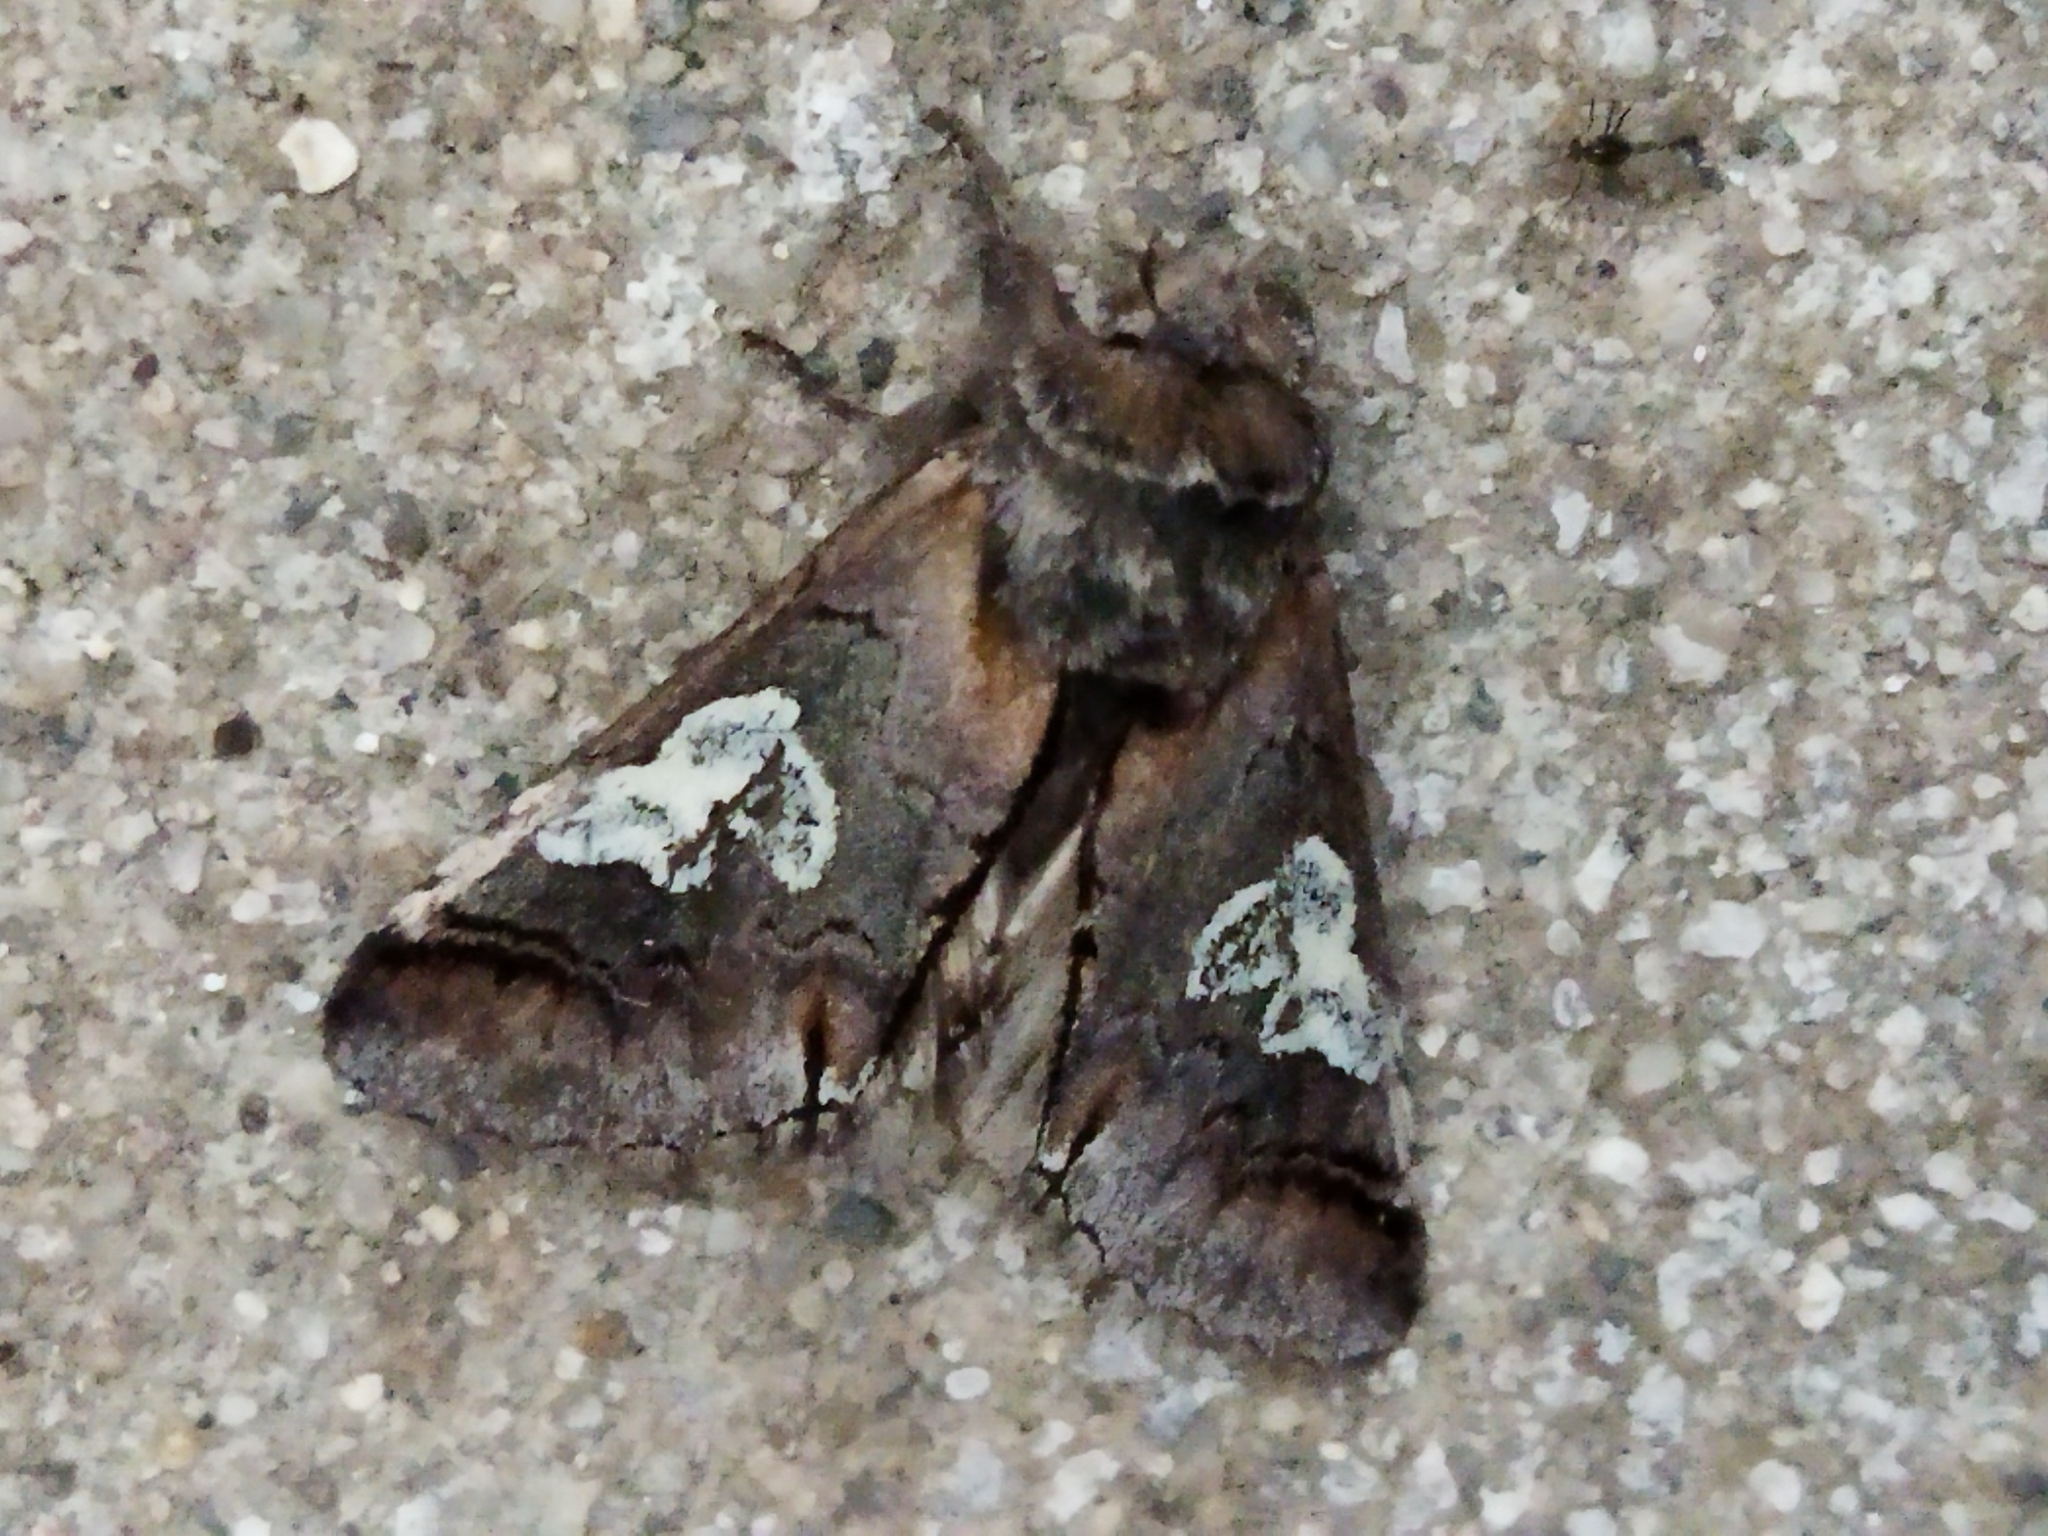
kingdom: Animalia
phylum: Arthropoda
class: Insecta
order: Lepidoptera
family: Noctuidae
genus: Diloba
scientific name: Diloba caeruleocephala
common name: Figure of eight
